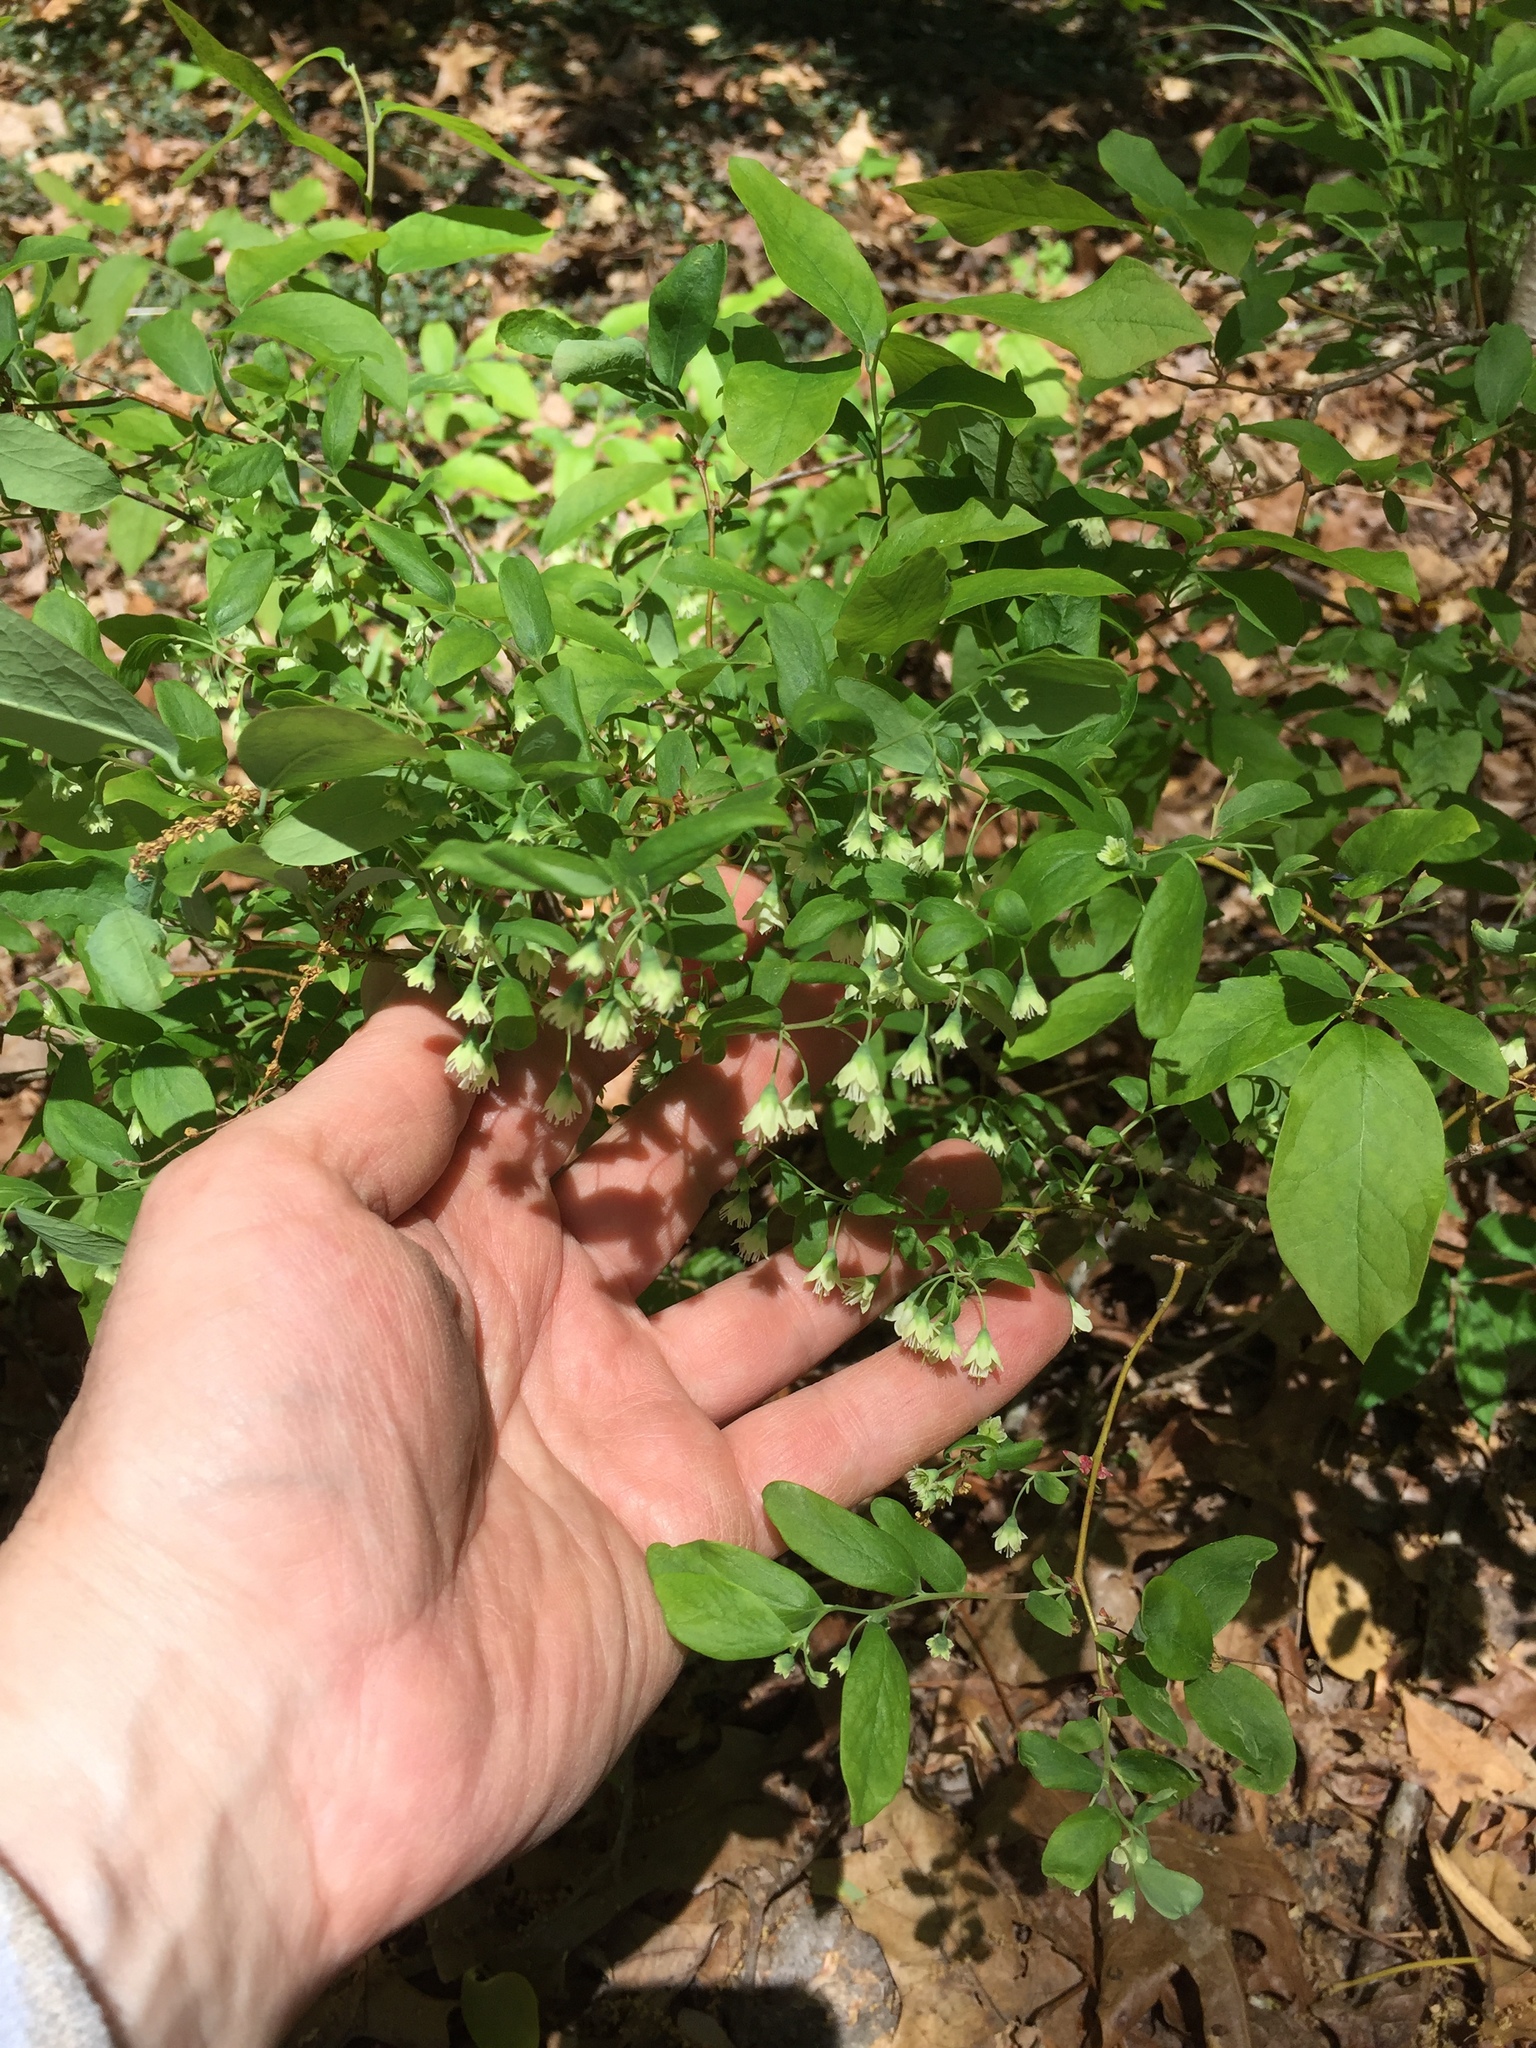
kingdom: Plantae
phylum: Tracheophyta
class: Magnoliopsida
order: Ericales
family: Ericaceae
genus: Vaccinium
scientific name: Vaccinium stamineum
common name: Deerberry
